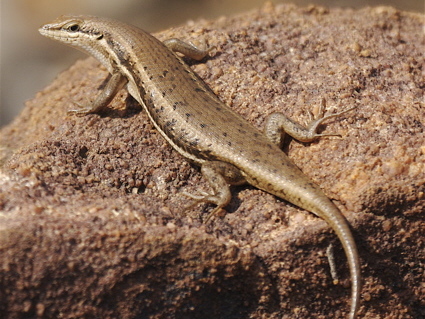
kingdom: Animalia
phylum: Chordata
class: Squamata
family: Scincidae
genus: Trachylepis
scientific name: Trachylepis varia
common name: Eastern variable skink
